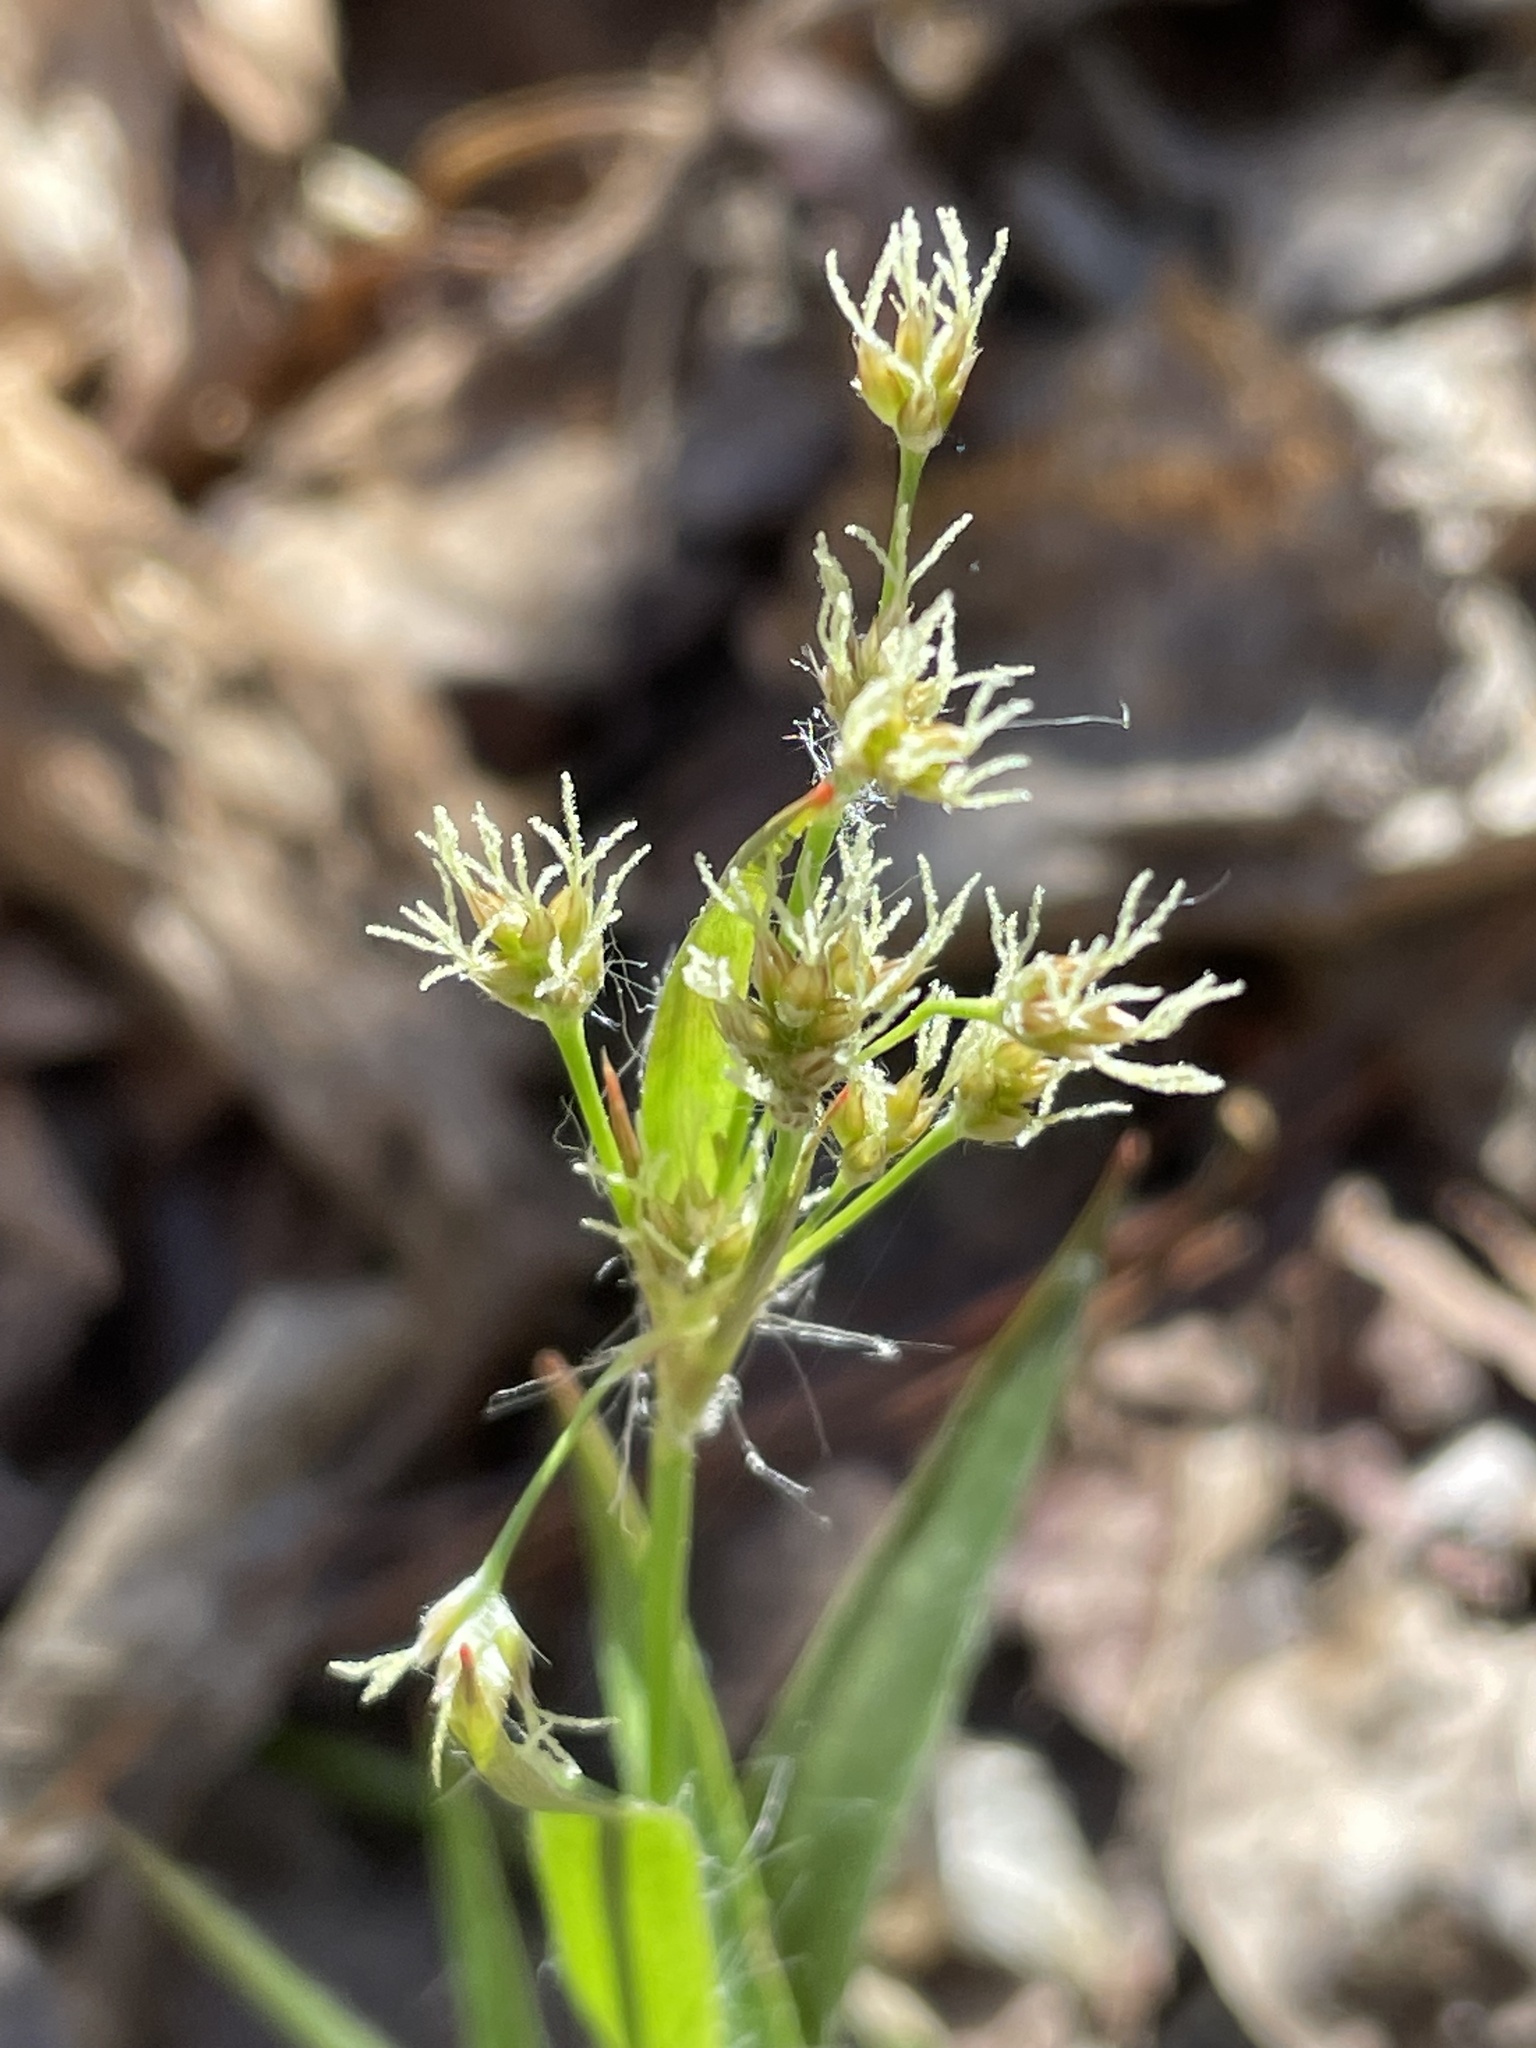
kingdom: Plantae
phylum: Tracheophyta
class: Liliopsida
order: Poales
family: Juncaceae
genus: Luzula
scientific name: Luzula echinata
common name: Hedgehog woodrush
